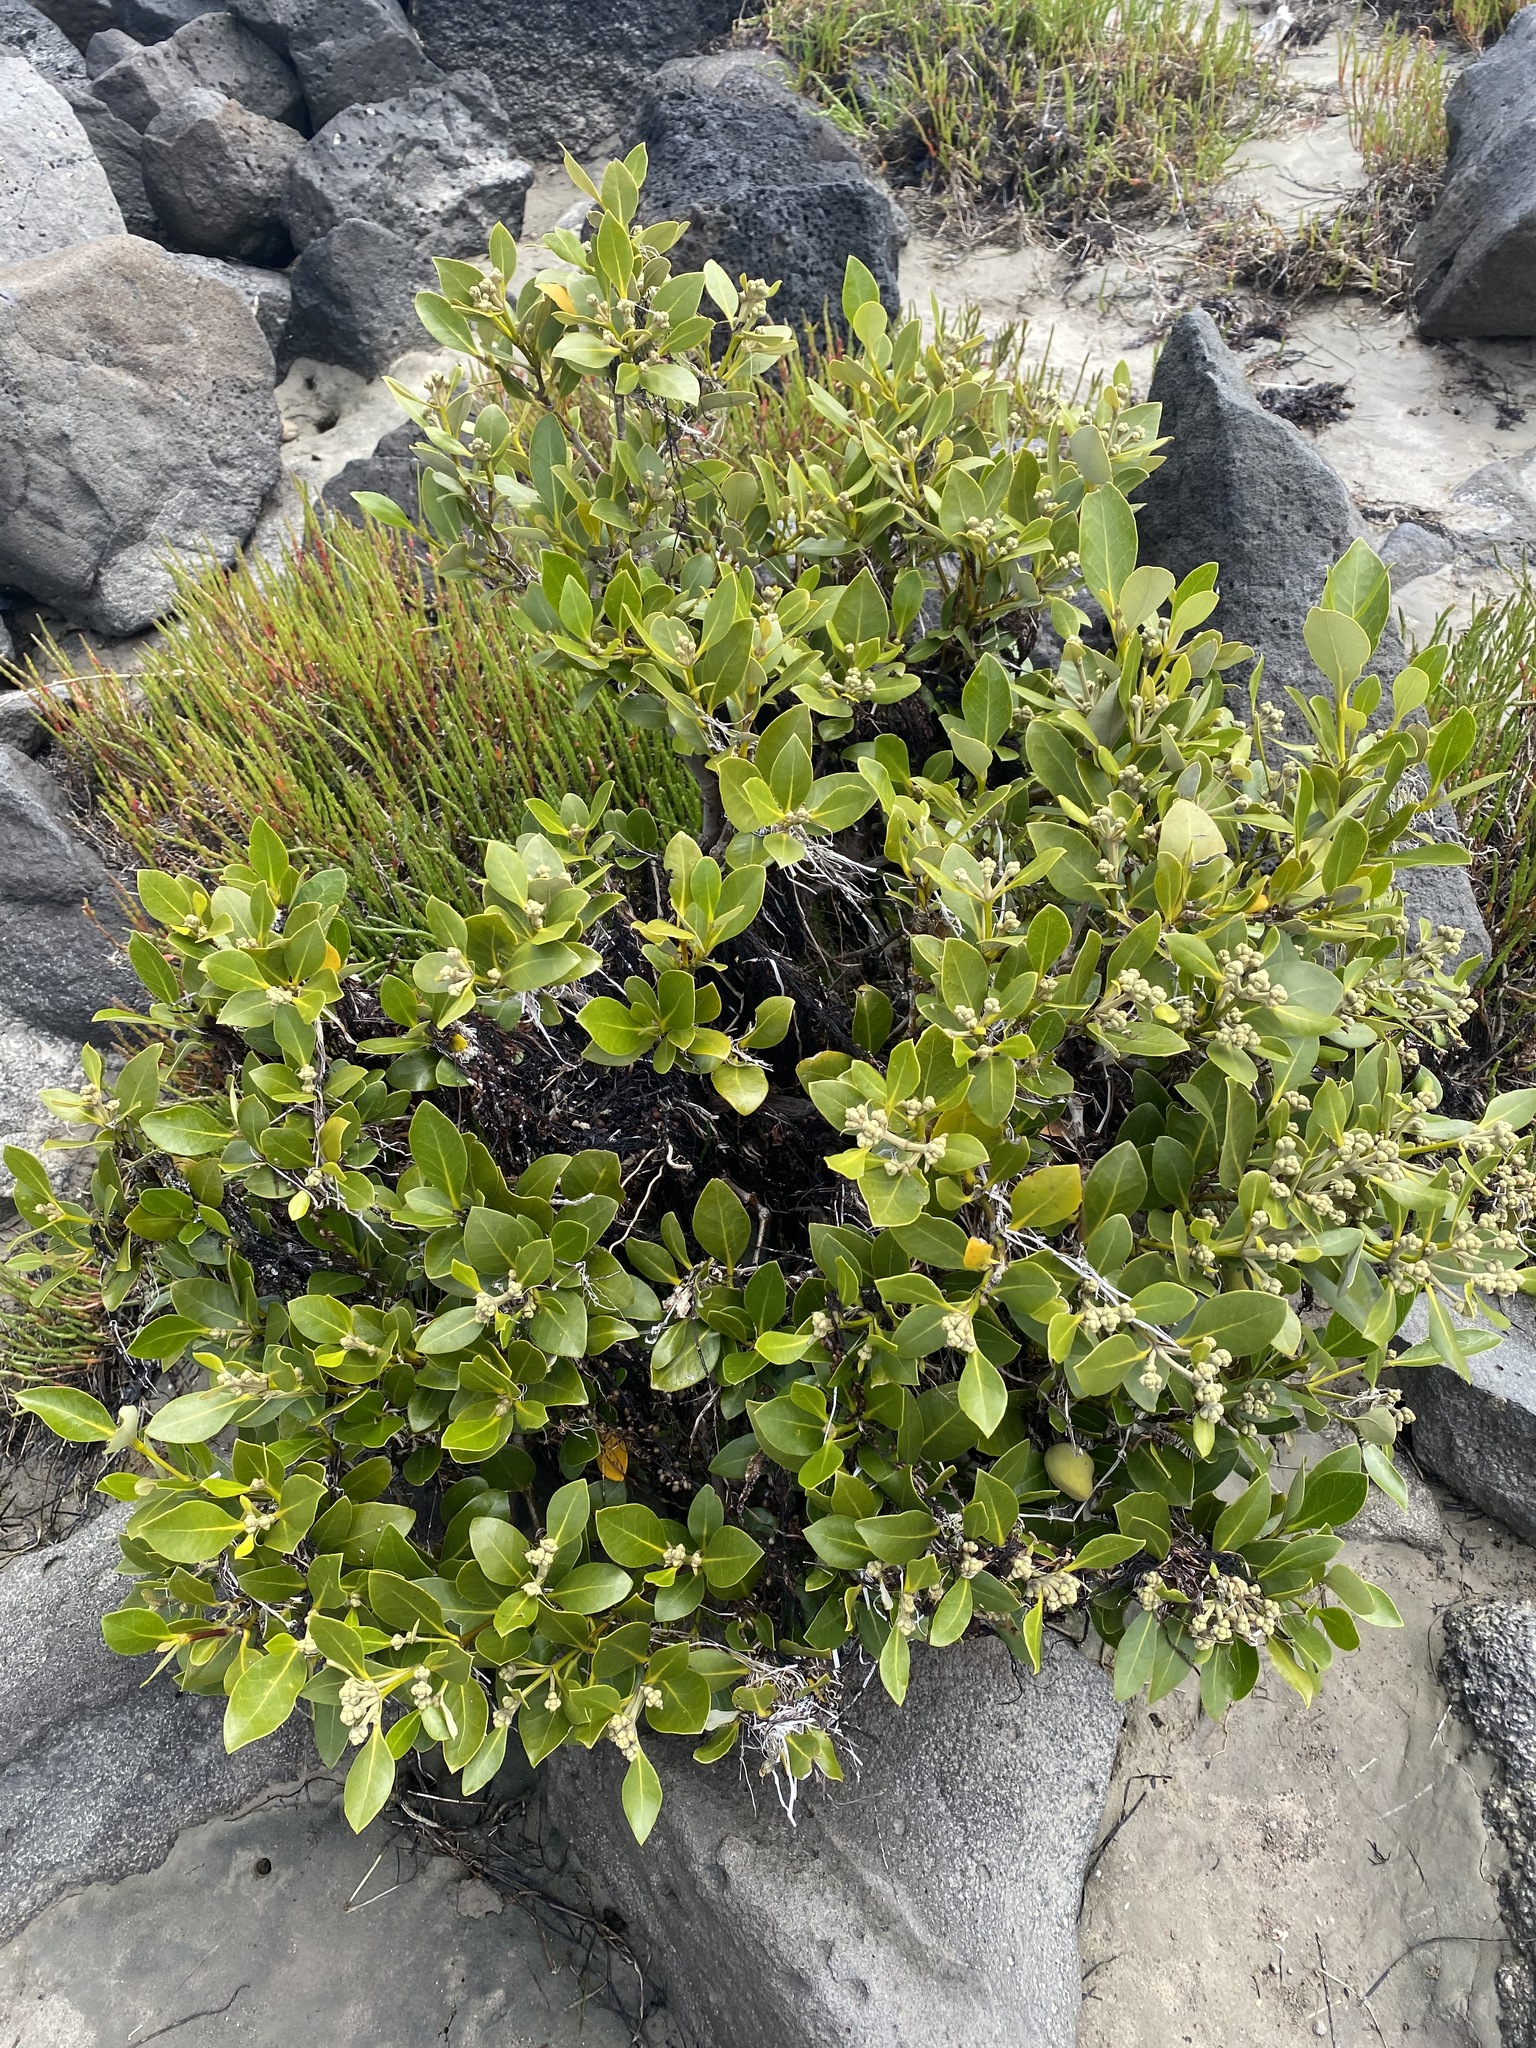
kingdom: Plantae
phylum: Tracheophyta
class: Magnoliopsida
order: Lamiales
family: Acanthaceae
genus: Avicennia
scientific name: Avicennia marina
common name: Gray mangrove
